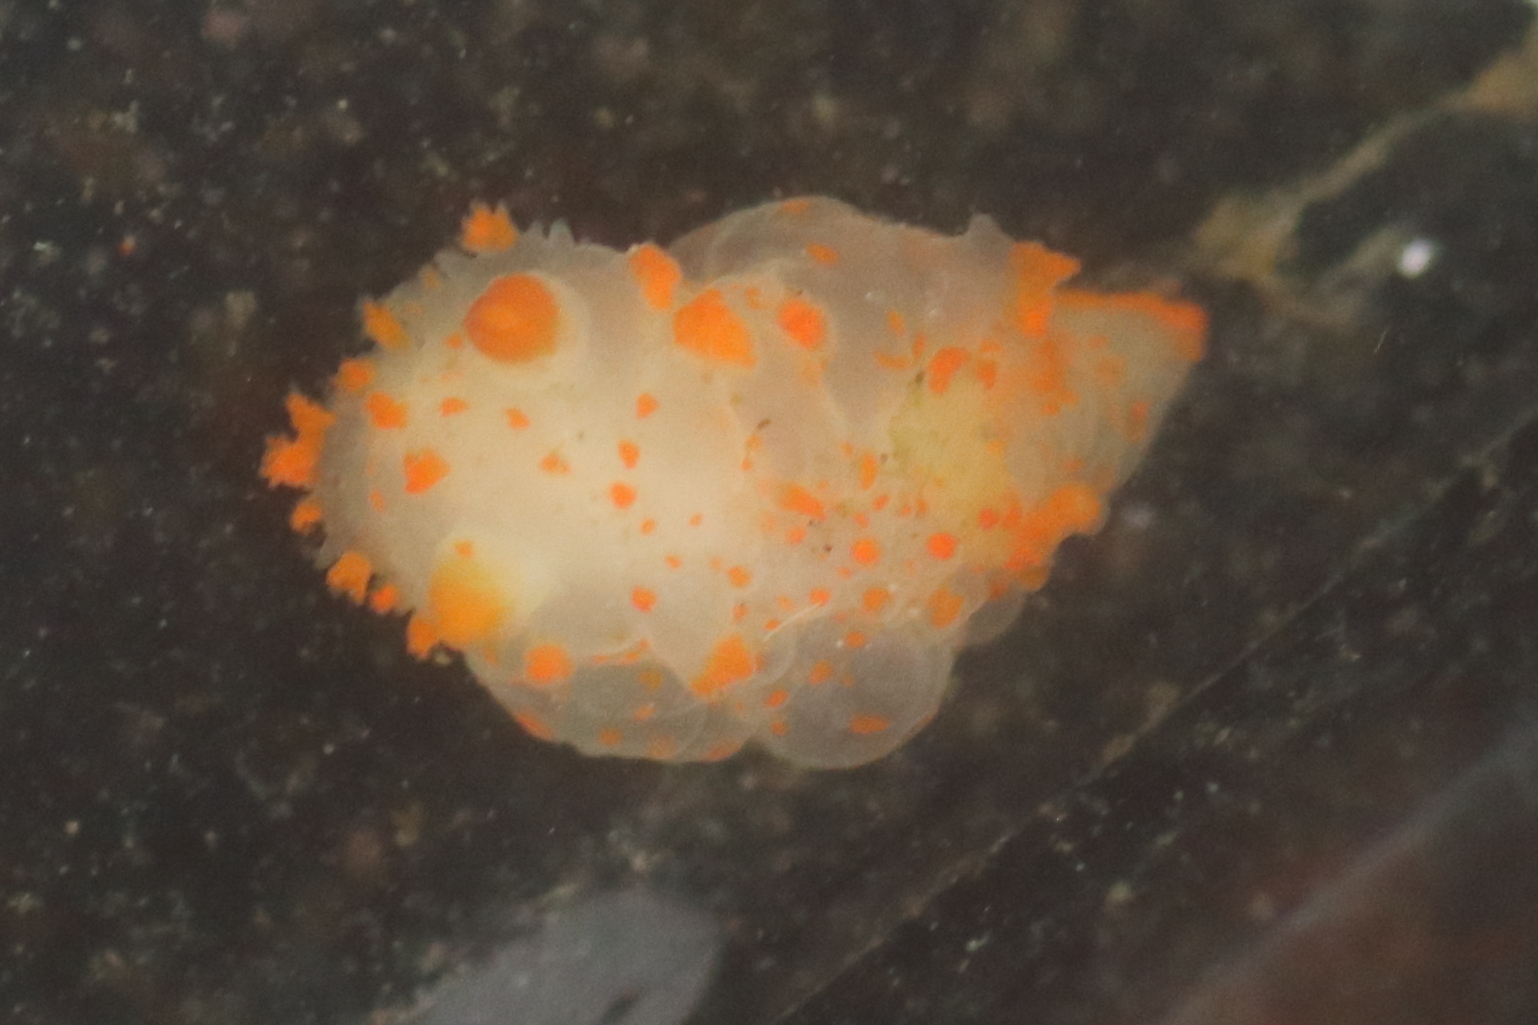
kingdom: Animalia
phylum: Mollusca
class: Gastropoda
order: Nudibranchia
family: Polyceridae
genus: Triopha
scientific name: Triopha modesta
